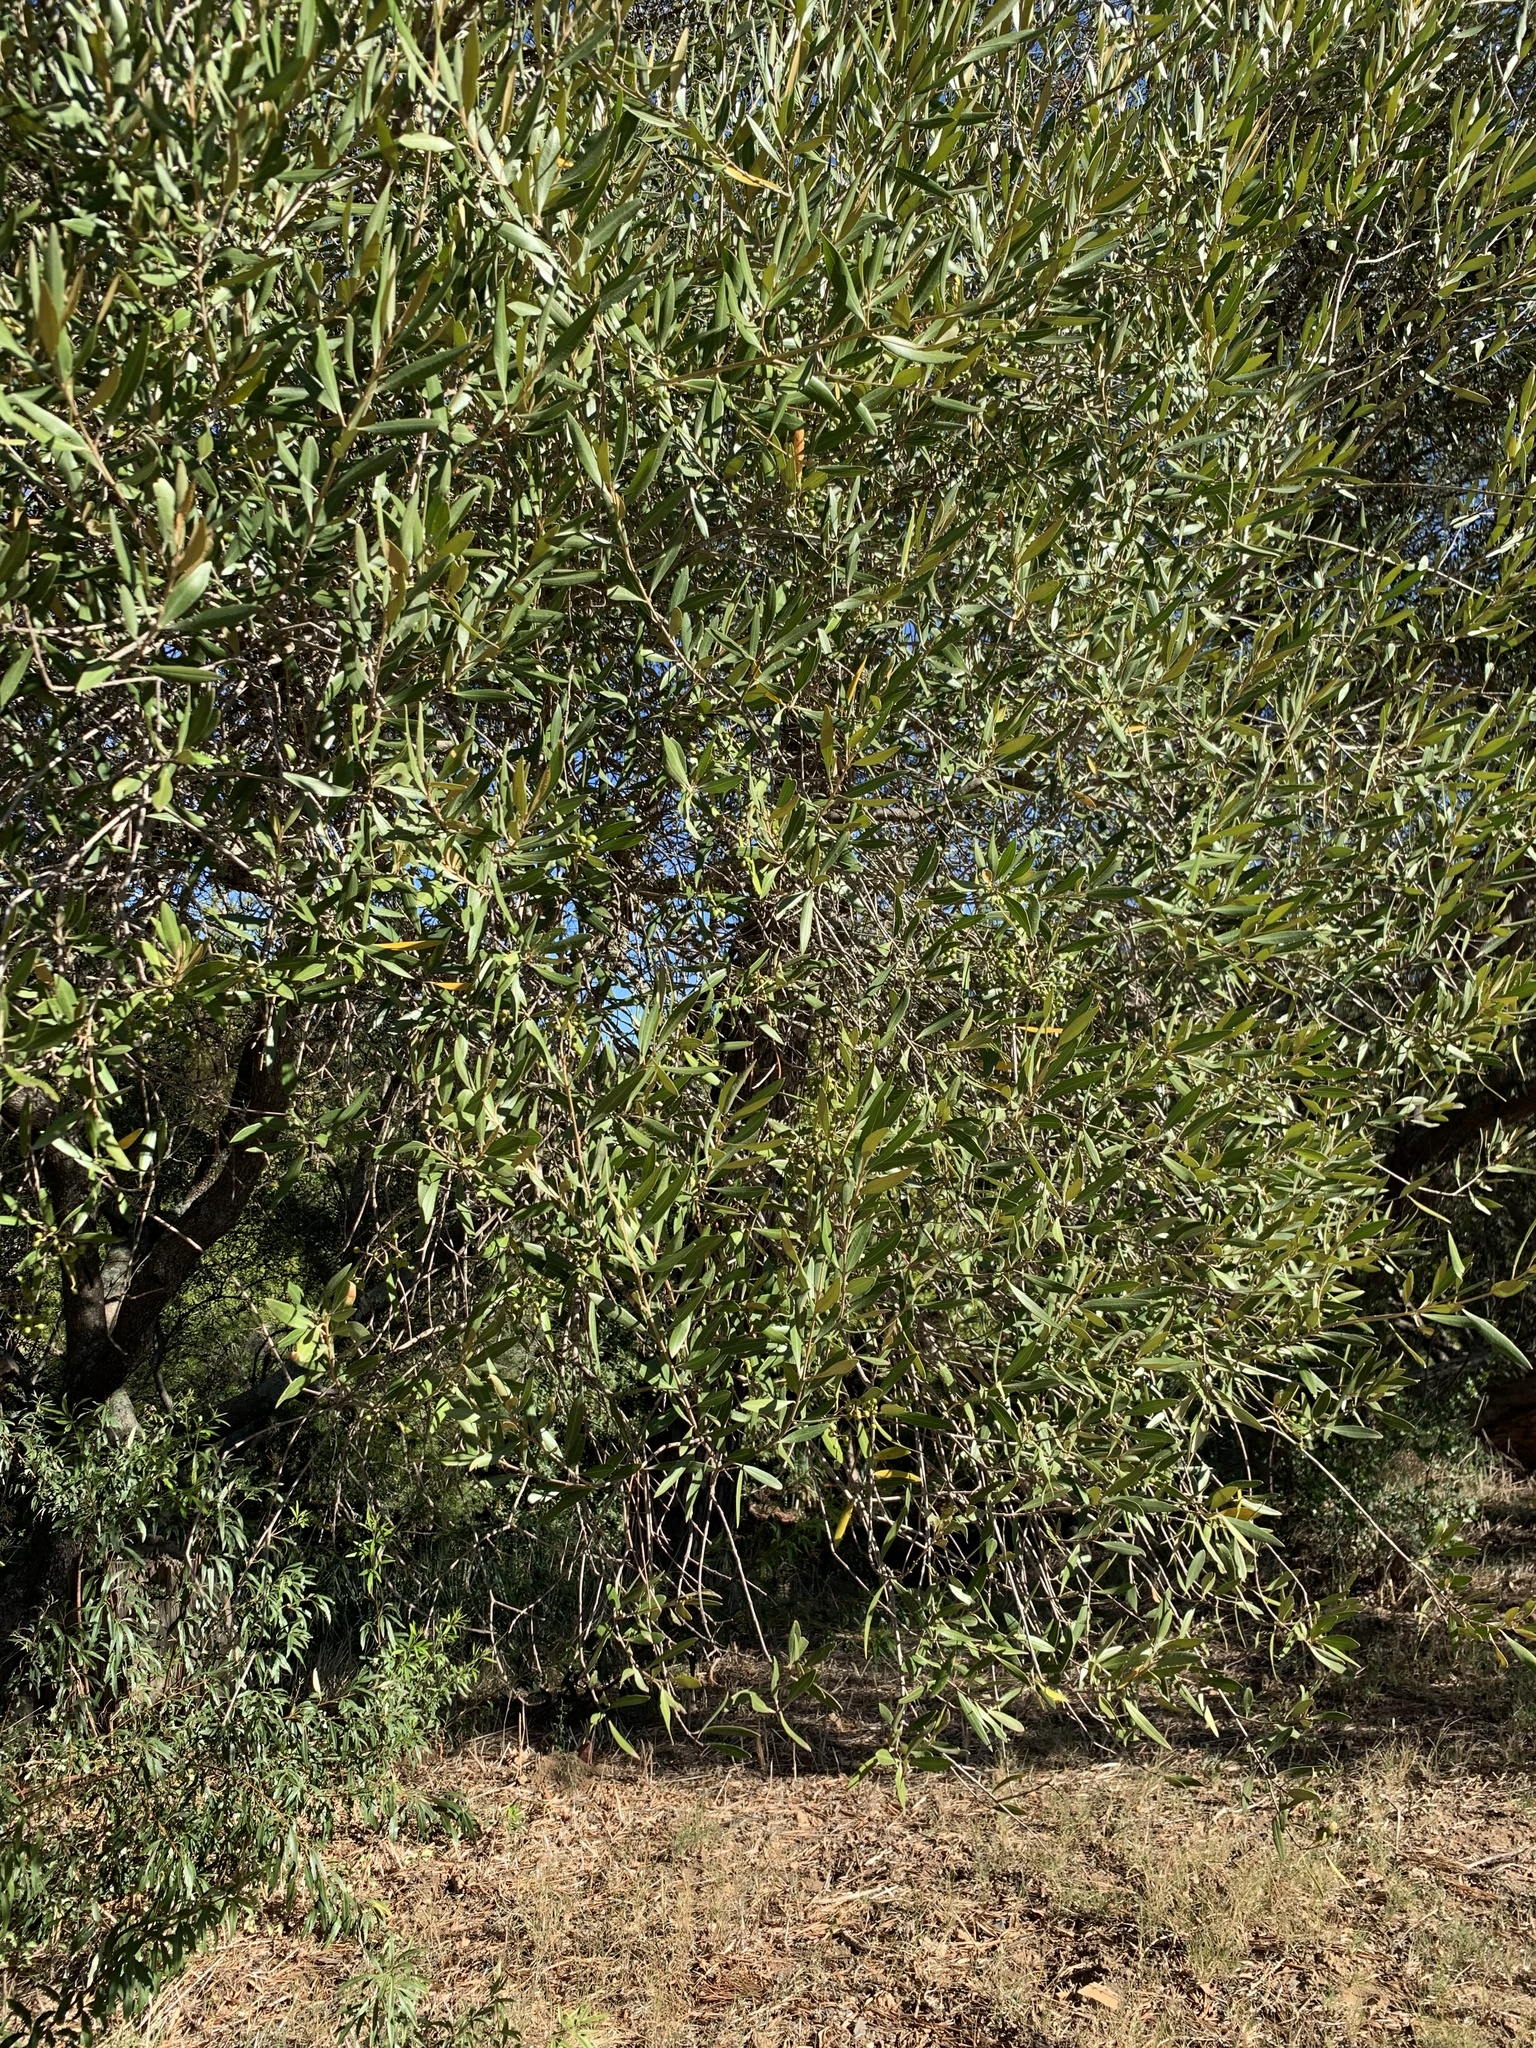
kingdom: Plantae
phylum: Tracheophyta
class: Magnoliopsida
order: Lamiales
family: Oleaceae
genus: Olea
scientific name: Olea europaea
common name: Olive
